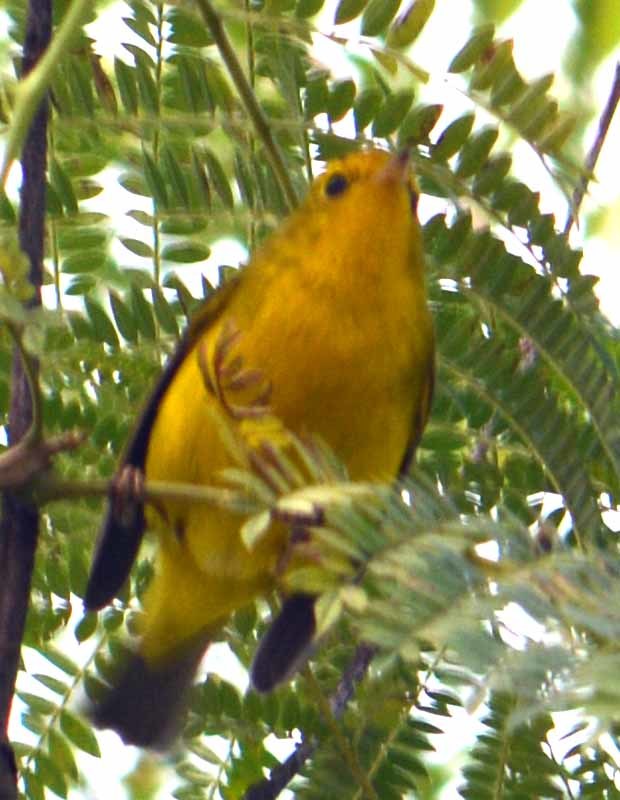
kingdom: Animalia
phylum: Chordata
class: Aves
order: Passeriformes
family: Parulidae
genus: Cardellina
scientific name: Cardellina pusilla
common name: Wilson's warbler
